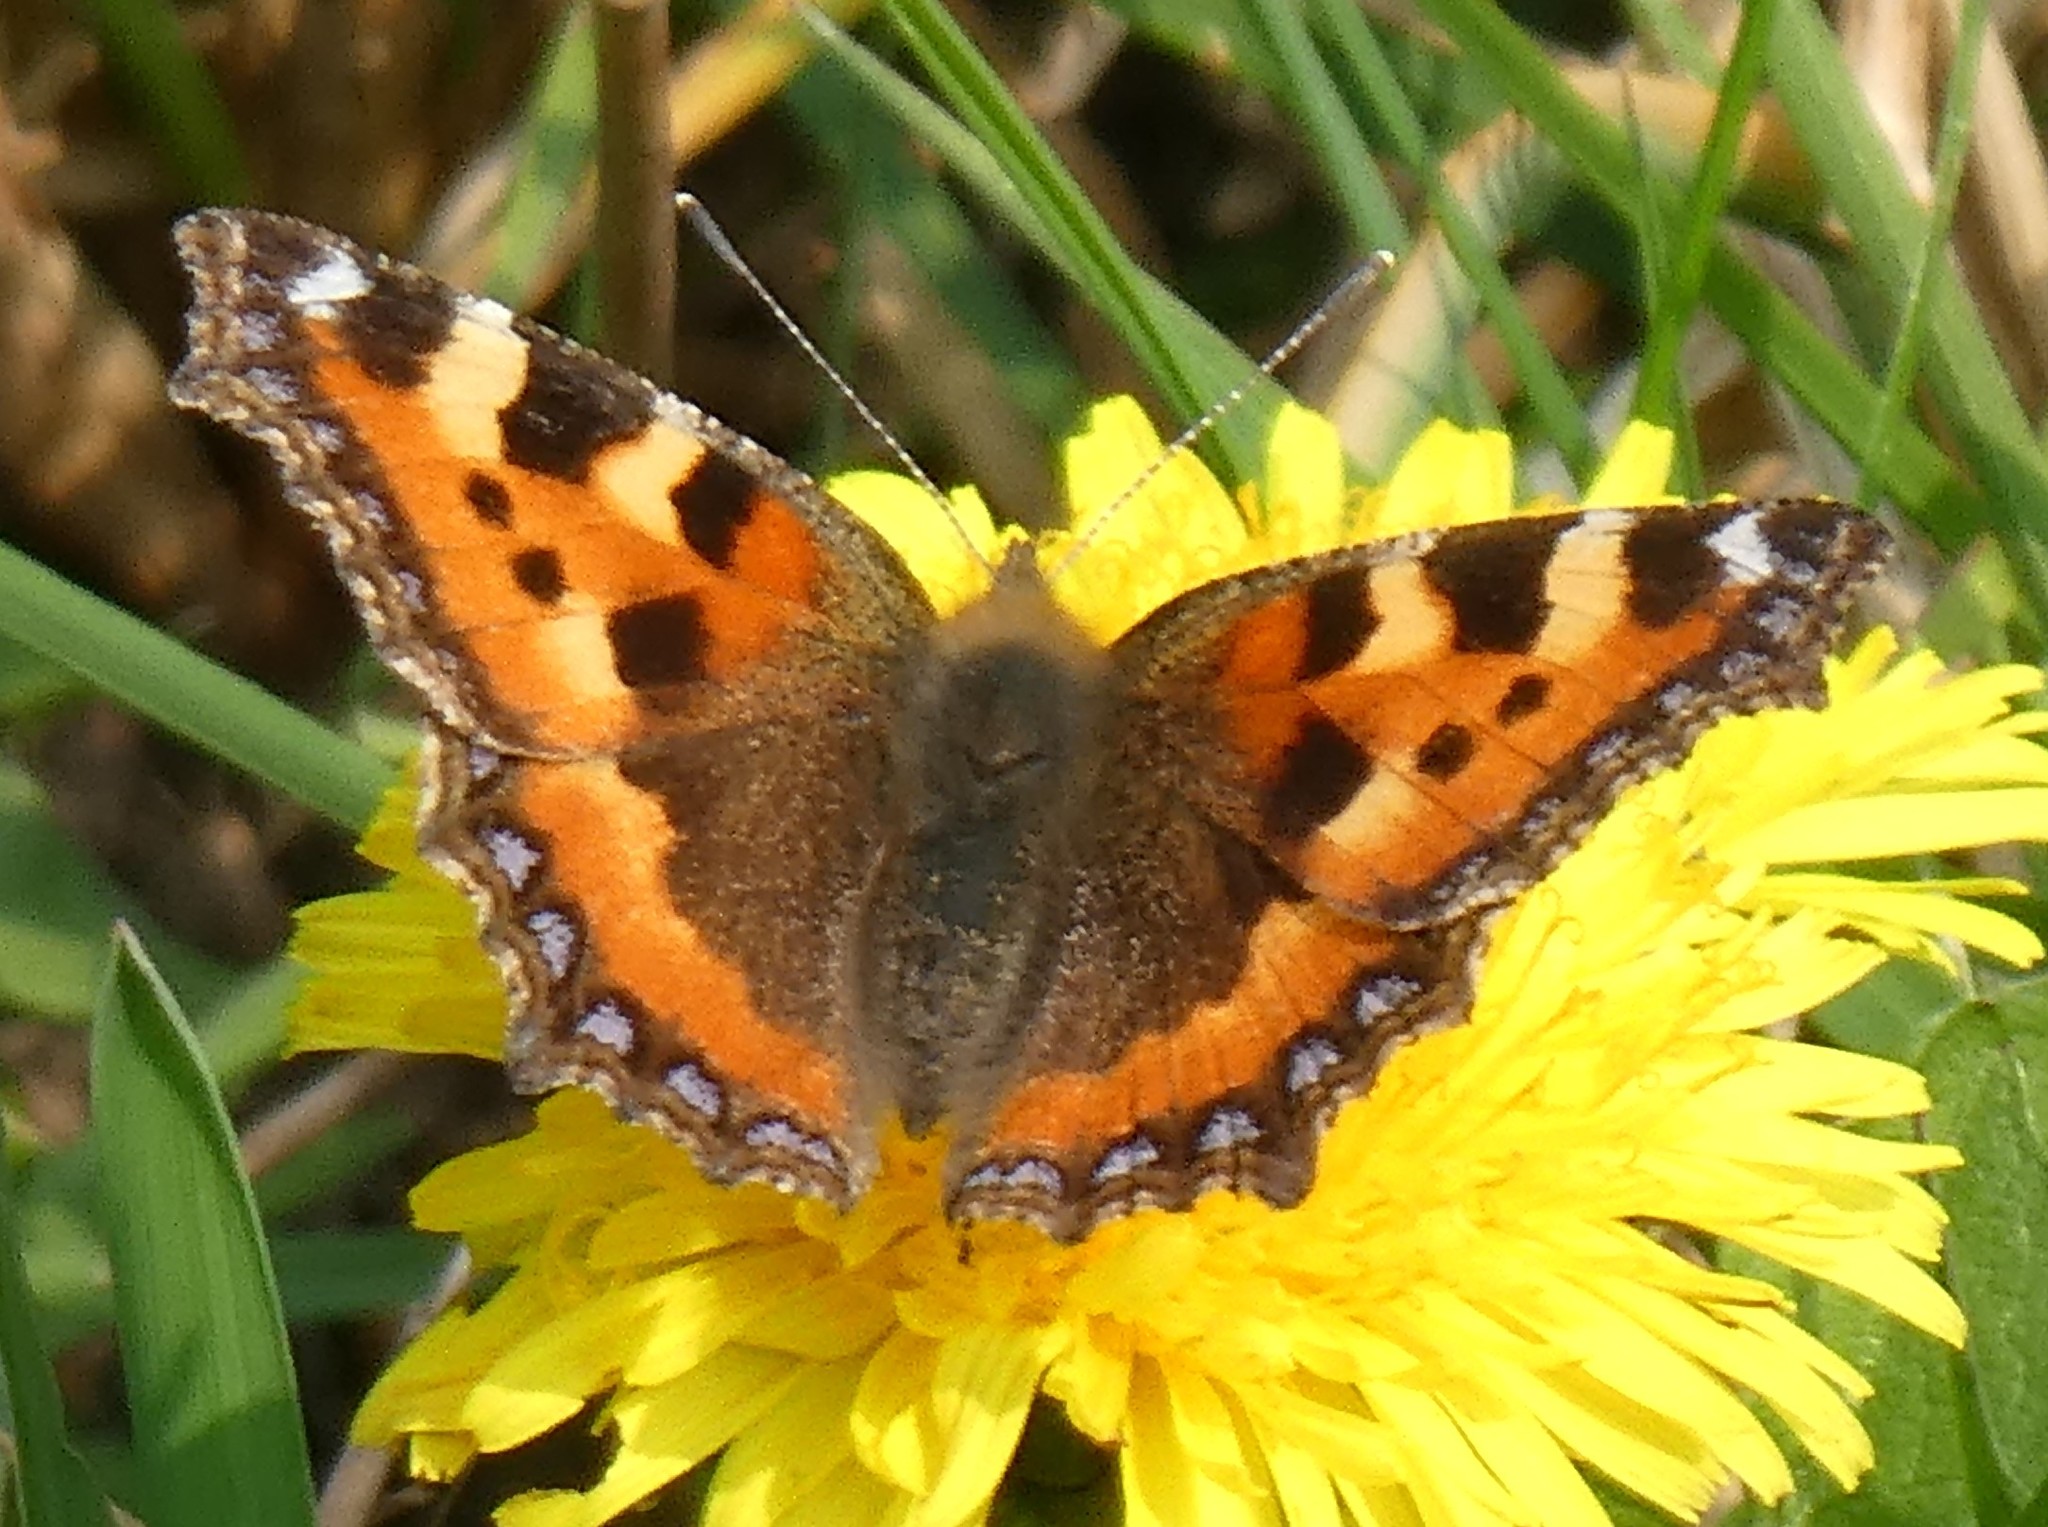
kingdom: Animalia
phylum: Arthropoda
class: Insecta
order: Lepidoptera
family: Nymphalidae
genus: Aglais
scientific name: Aglais urticae
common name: Small tortoiseshell
